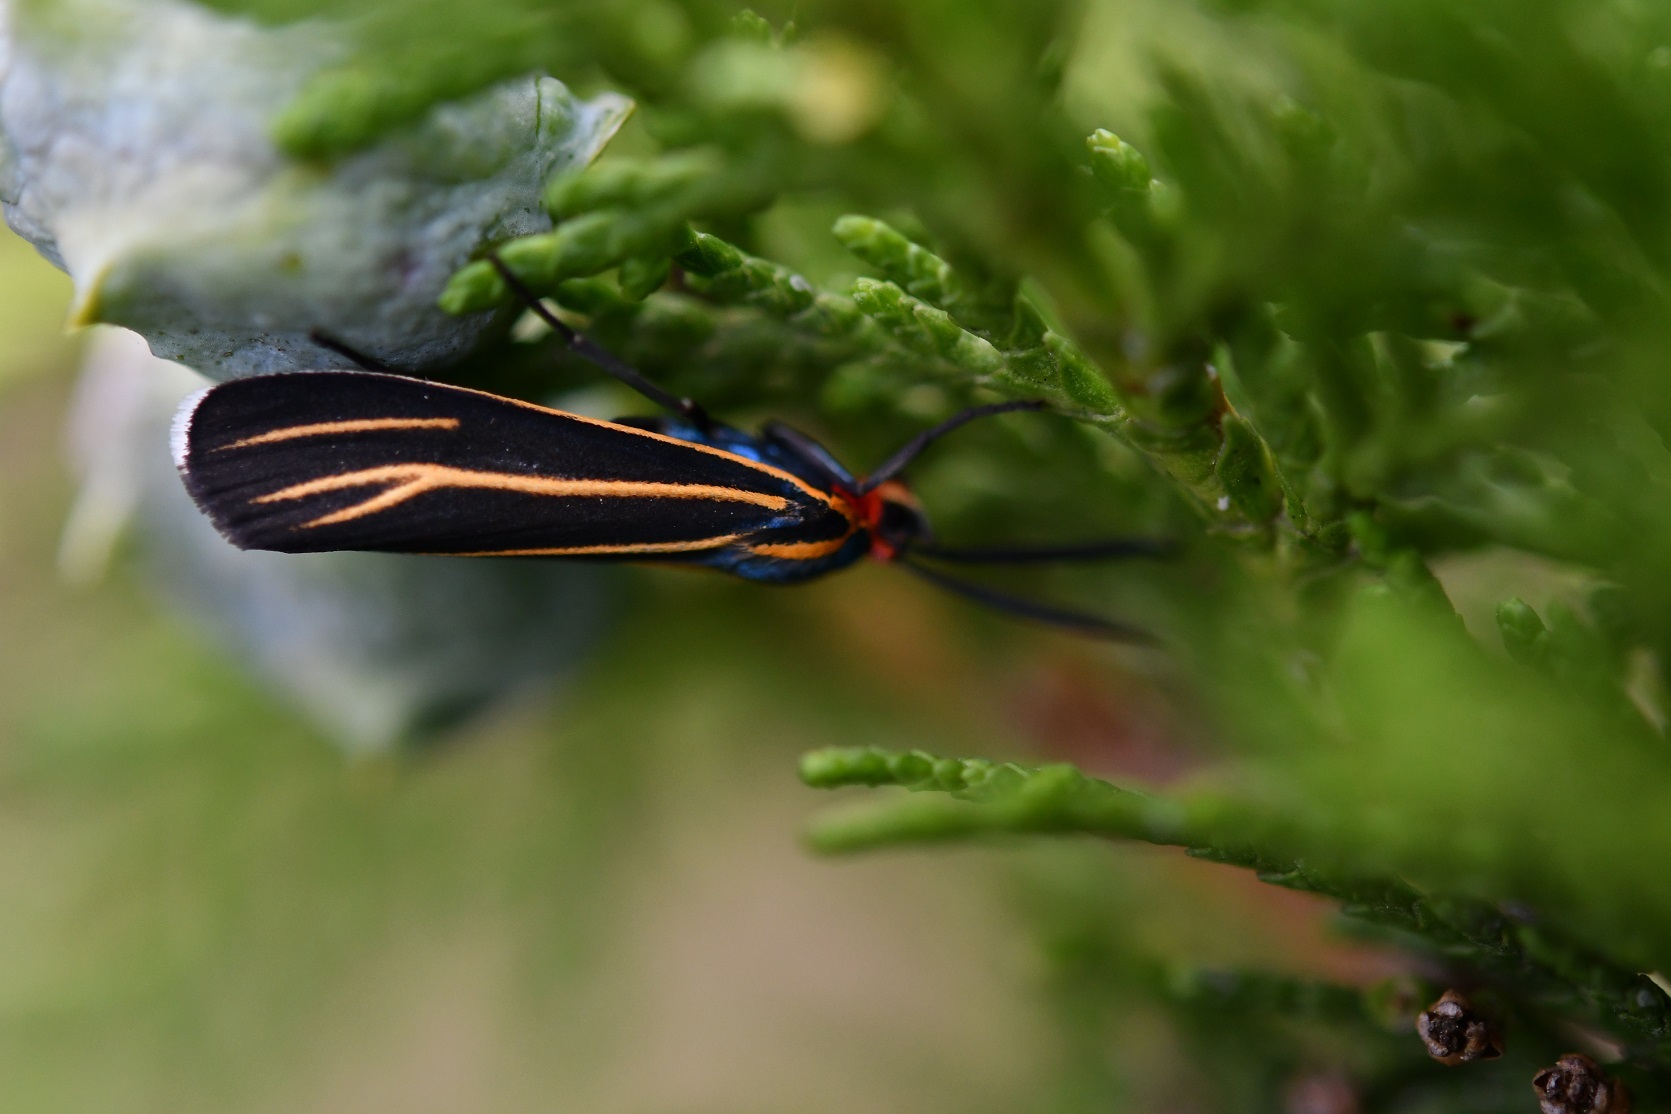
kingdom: Animalia
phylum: Arthropoda
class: Insecta
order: Lepidoptera
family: Erebidae
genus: Ctenucha
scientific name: Ctenucha venosa
